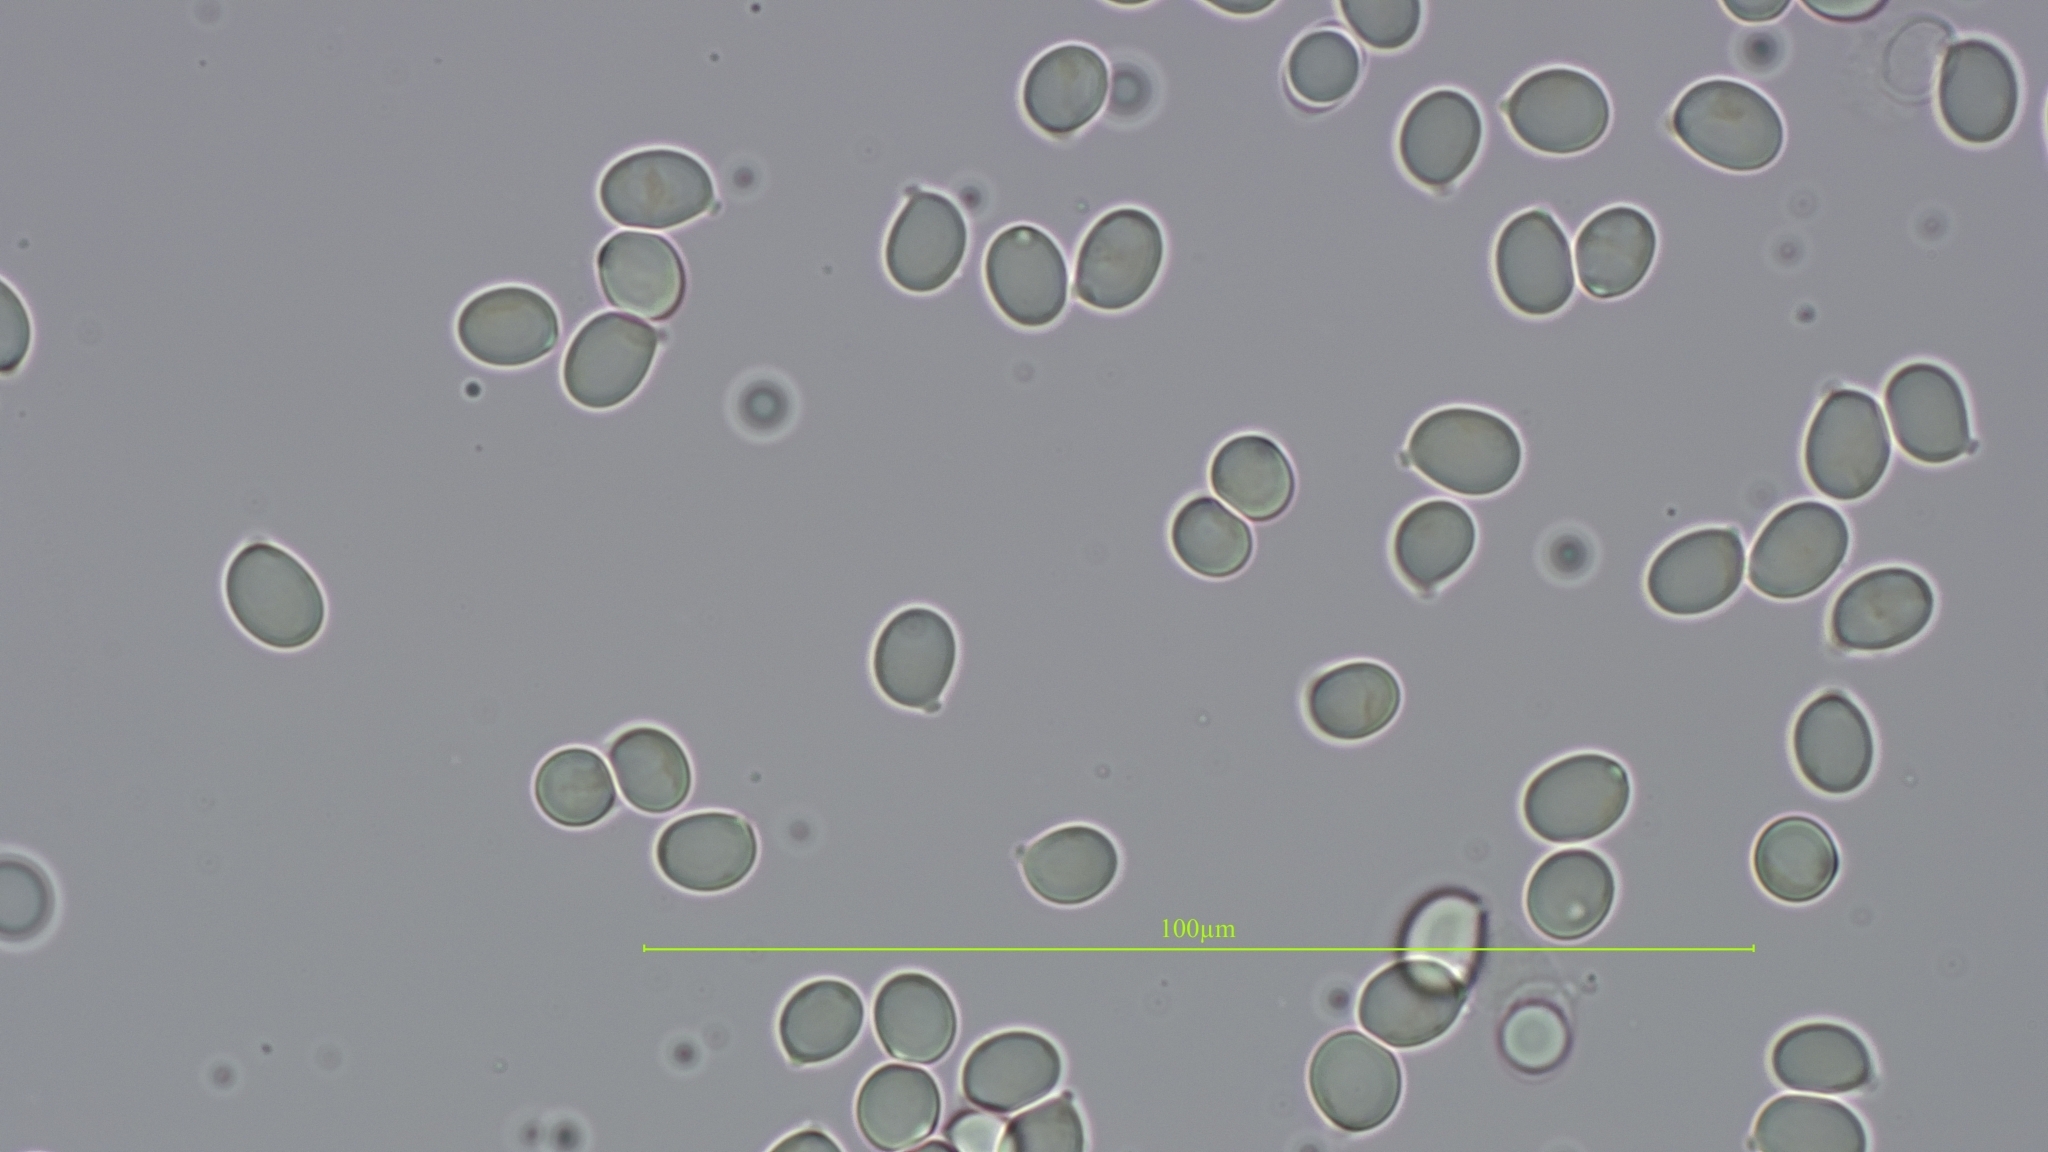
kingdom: Fungi
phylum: Basidiomycota
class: Agaricomycetes
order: Agaricales
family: Amanitaceae
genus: Amanita
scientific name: Amanita muscaria
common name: Fly agaric
